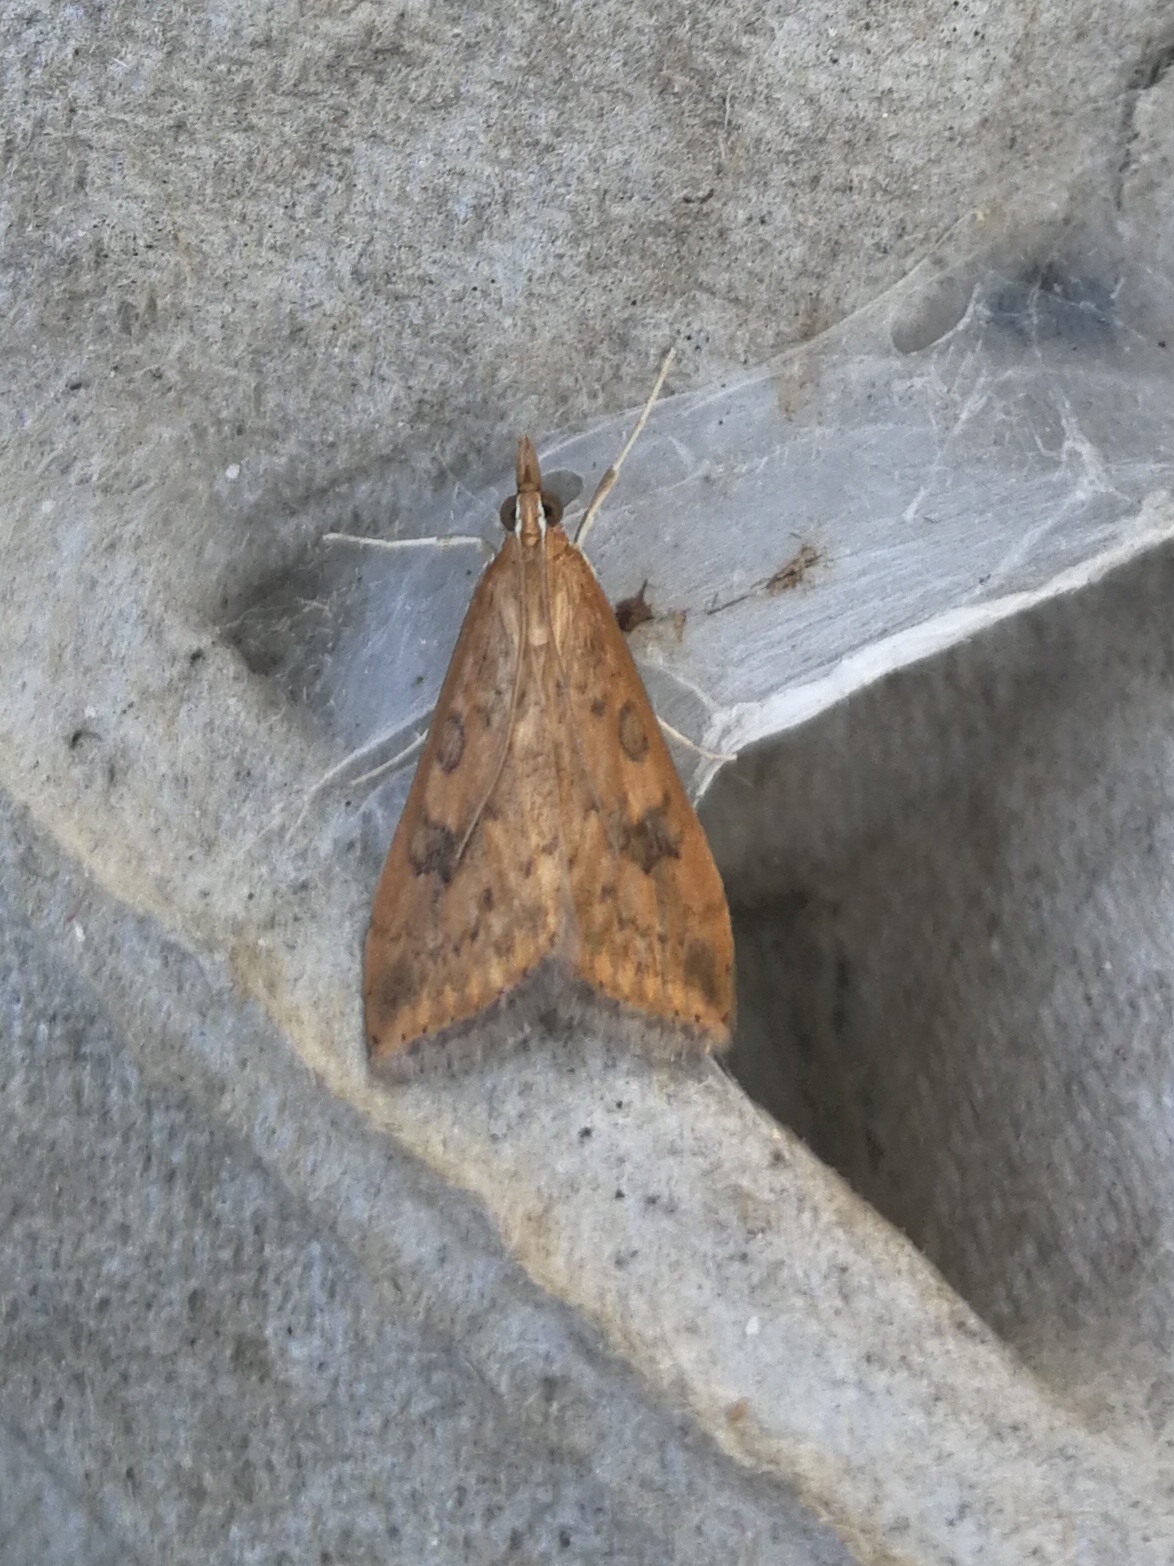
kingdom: Animalia
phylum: Arthropoda
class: Insecta
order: Lepidoptera
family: Crambidae
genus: Udea
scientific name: Udea ferrugalis
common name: Rusty dot
